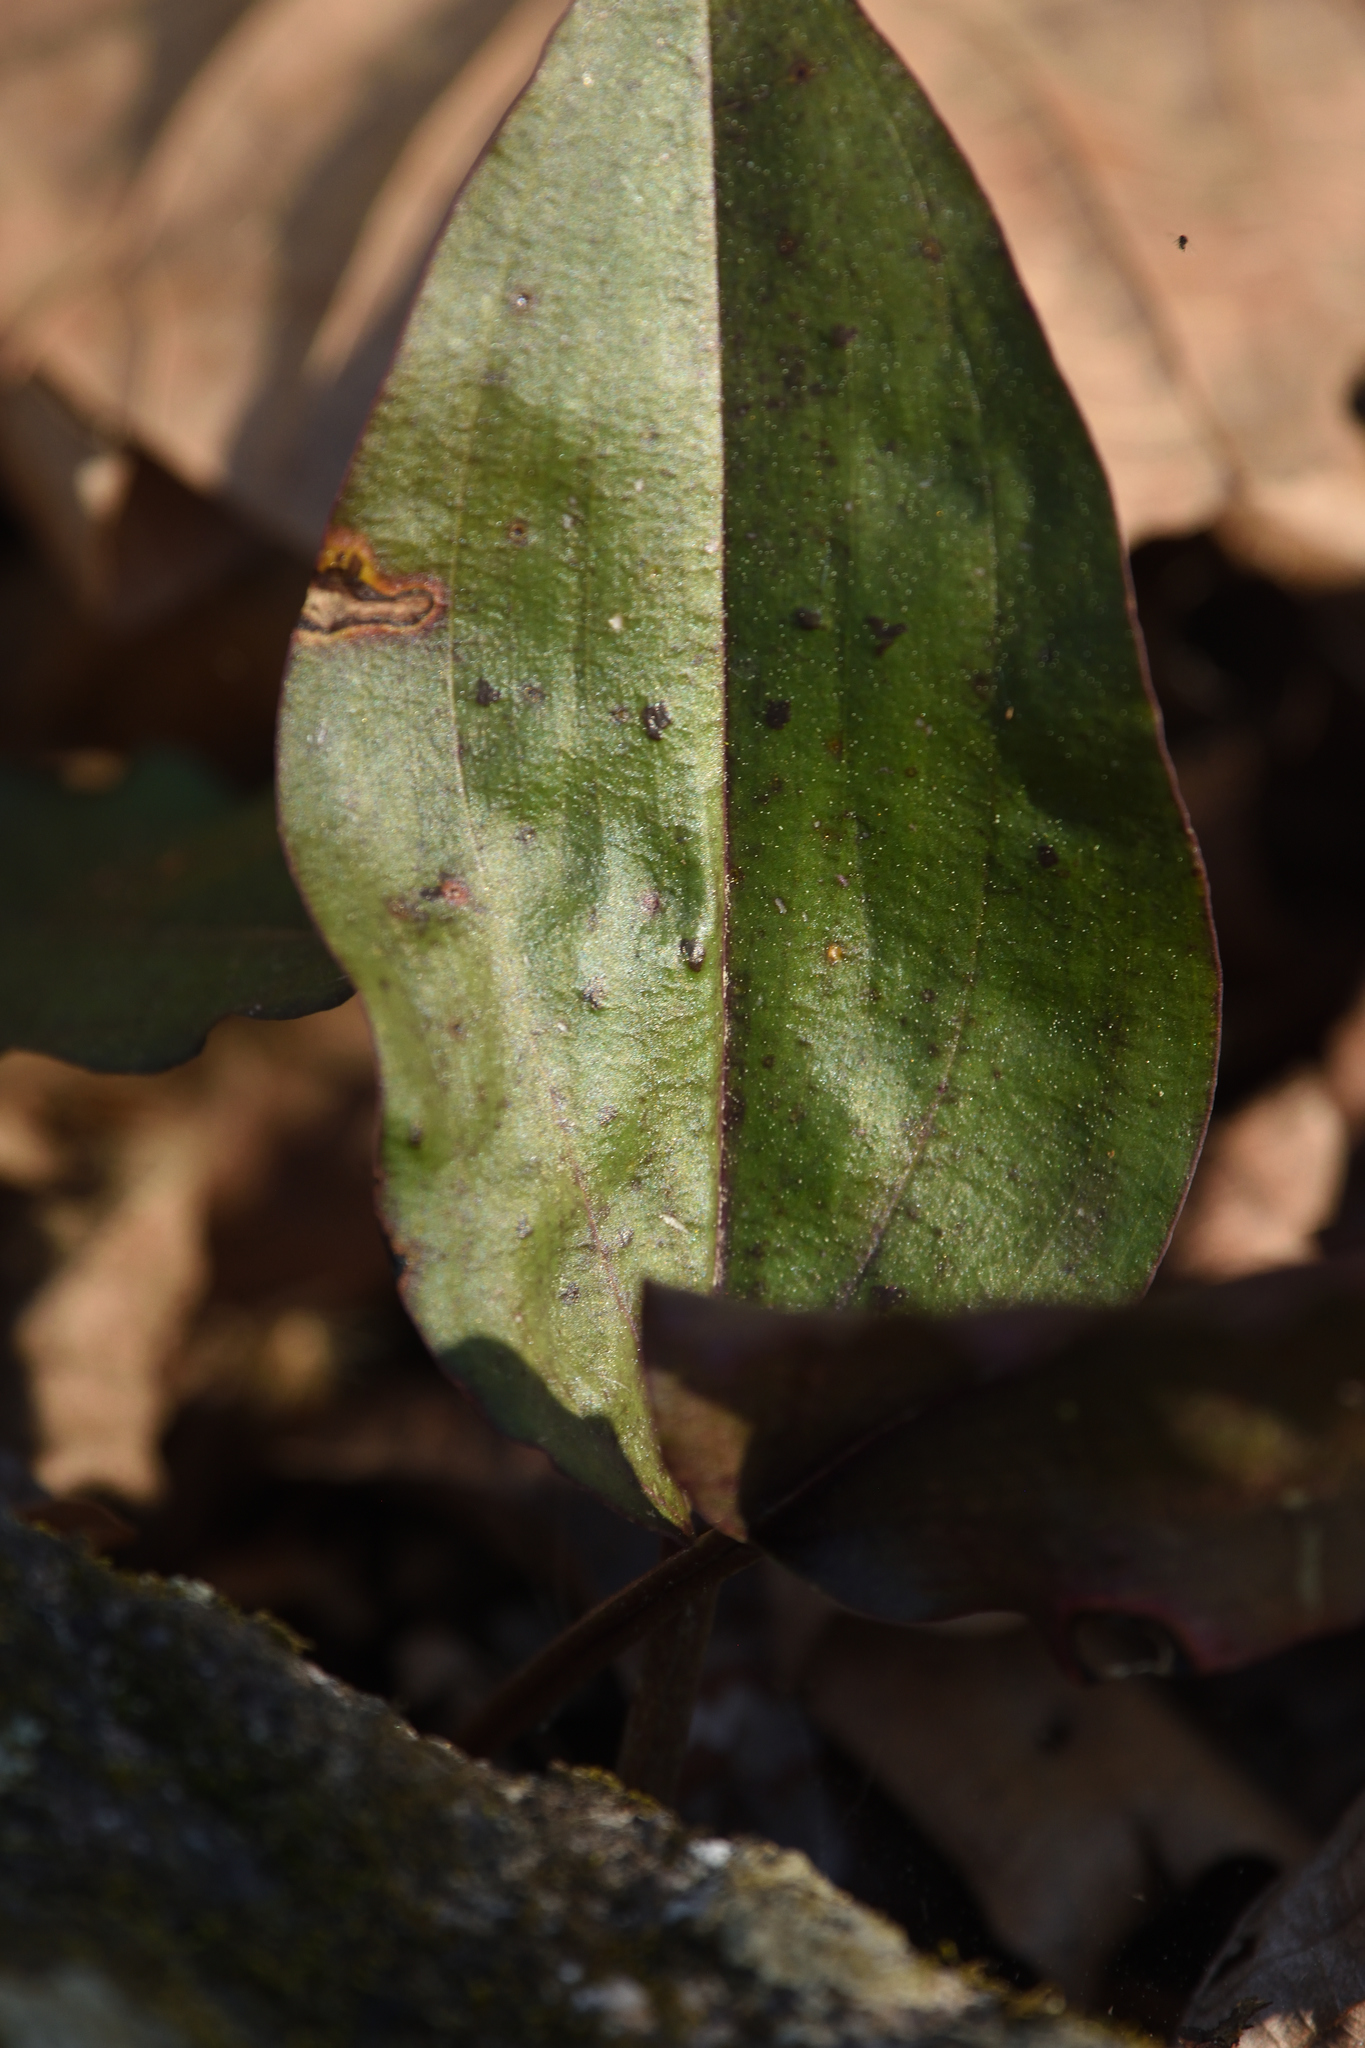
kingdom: Plantae
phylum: Tracheophyta
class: Liliopsida
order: Asparagales
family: Orchidaceae
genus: Tipularia
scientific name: Tipularia discolor
